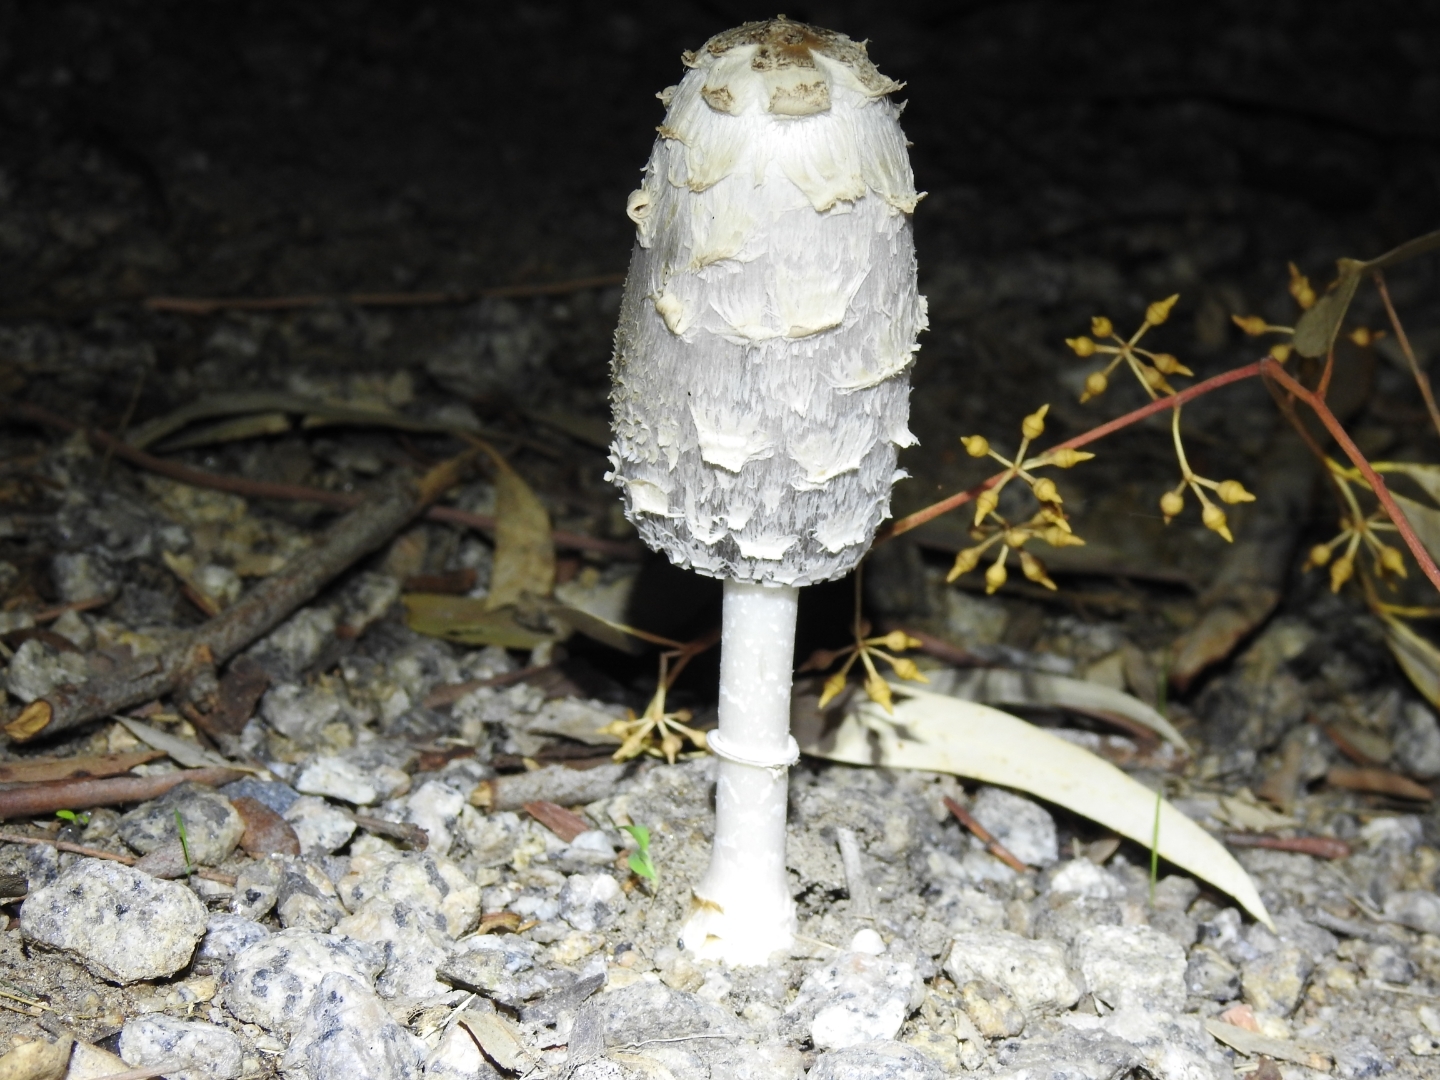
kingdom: Fungi
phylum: Basidiomycota
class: Agaricomycetes
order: Agaricales
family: Agaricaceae
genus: Coprinus
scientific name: Coprinus comatus
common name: Lawyer's wig
